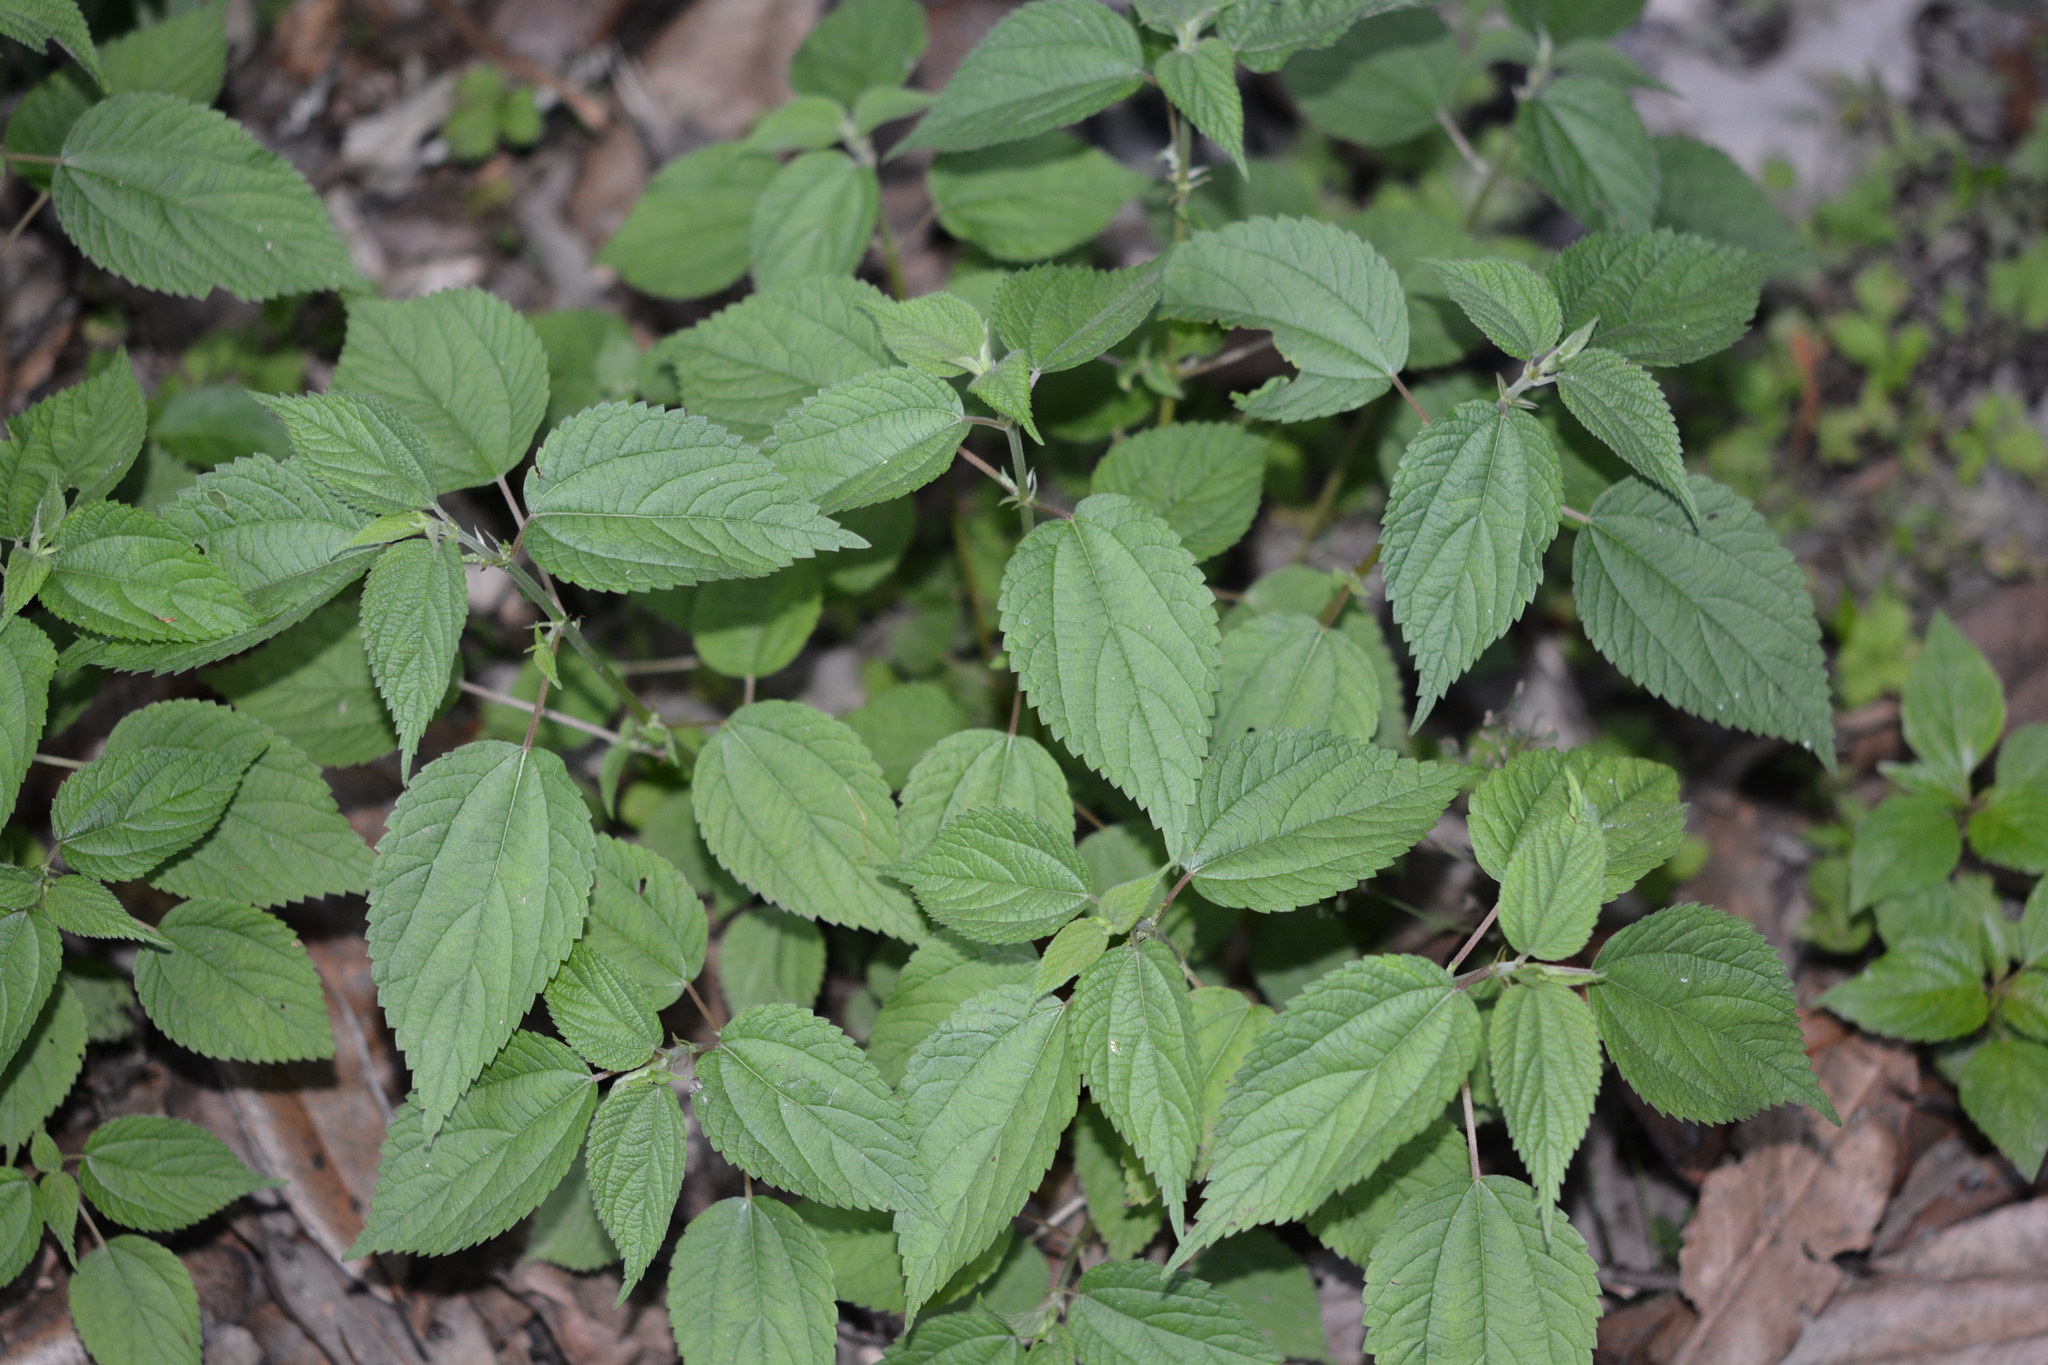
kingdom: Plantae
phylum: Tracheophyta
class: Magnoliopsida
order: Rosales
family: Urticaceae
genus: Boehmeria
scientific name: Boehmeria cylindrica
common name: Bog-hemp
